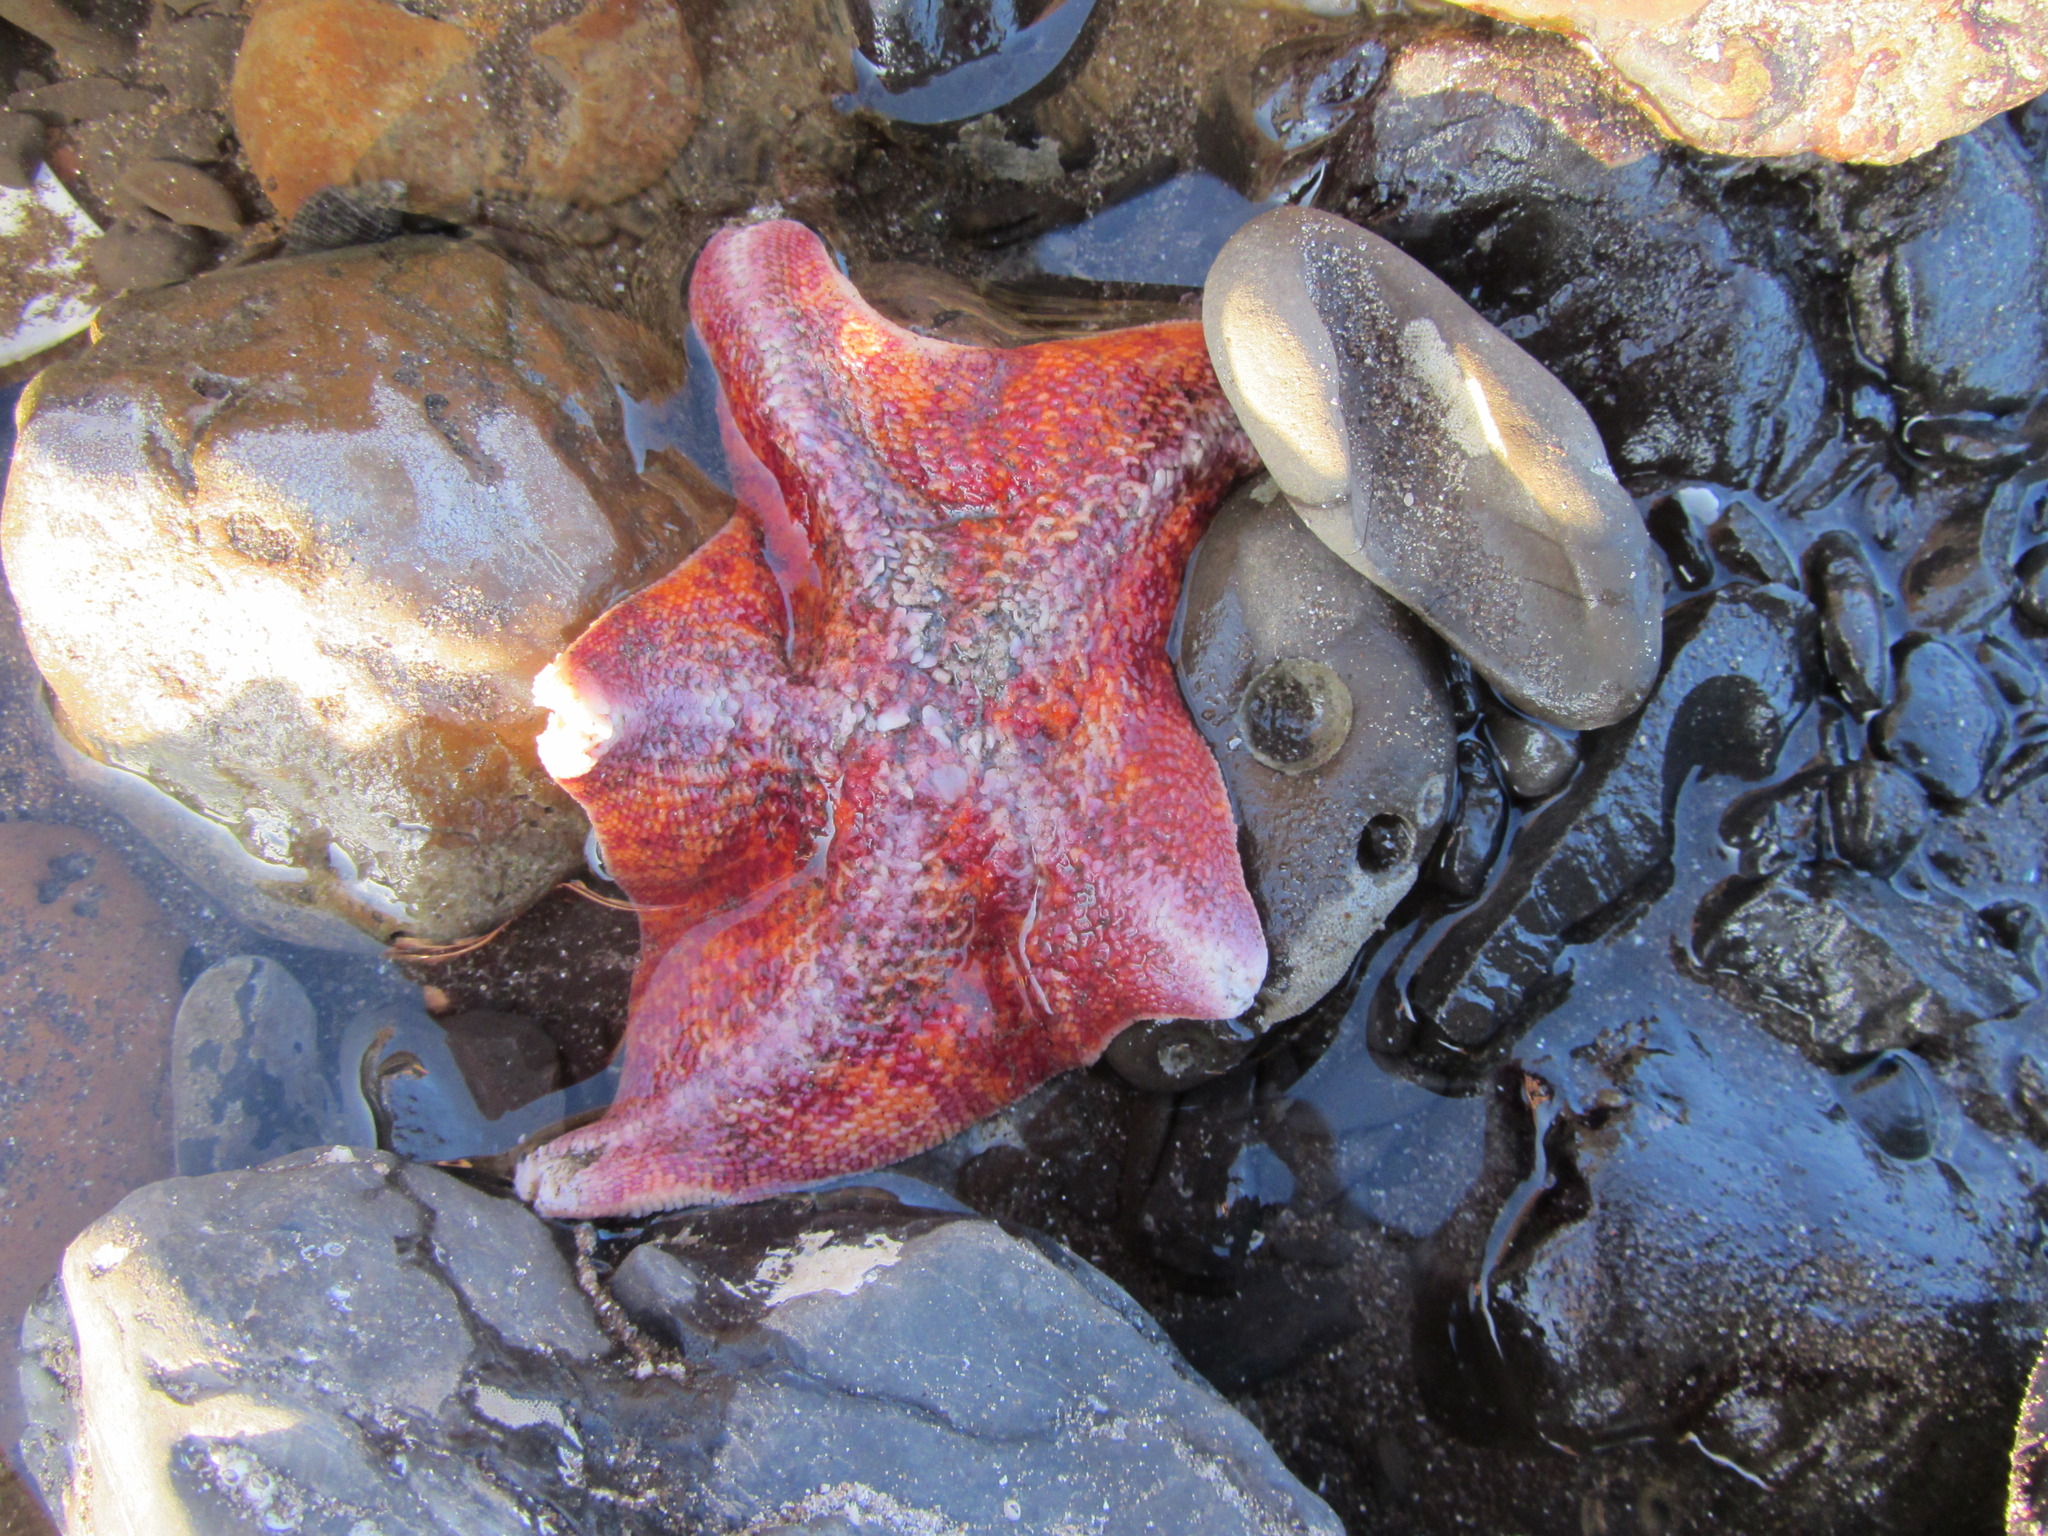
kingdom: Animalia
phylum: Echinodermata
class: Asteroidea
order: Valvatida
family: Asterinidae
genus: Patiria
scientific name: Patiria miniata
